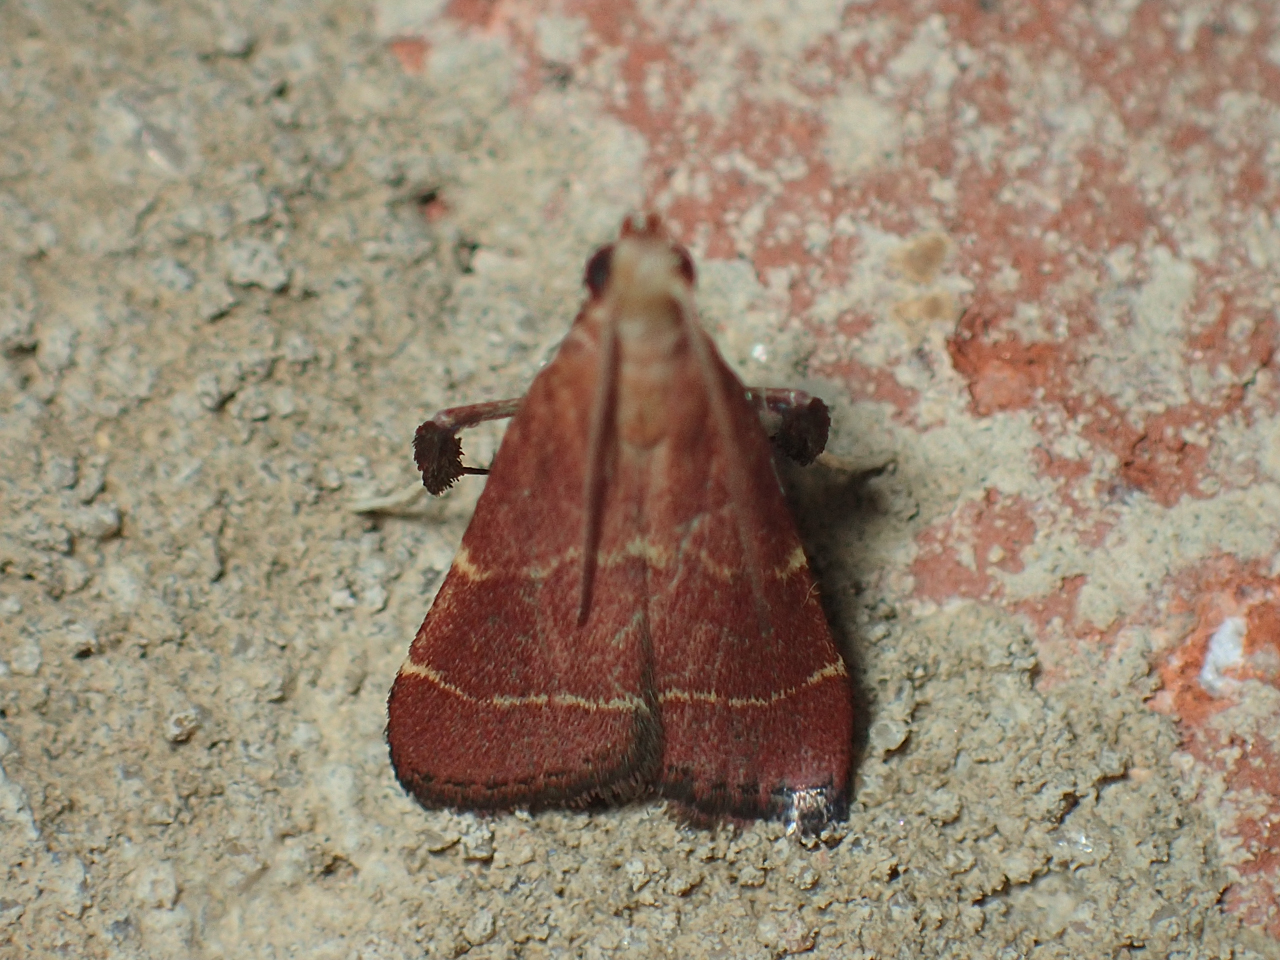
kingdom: Animalia
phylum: Arthropoda
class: Insecta
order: Lepidoptera
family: Pyralidae
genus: Arta
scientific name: Arta statalis
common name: Posturing arta moth
